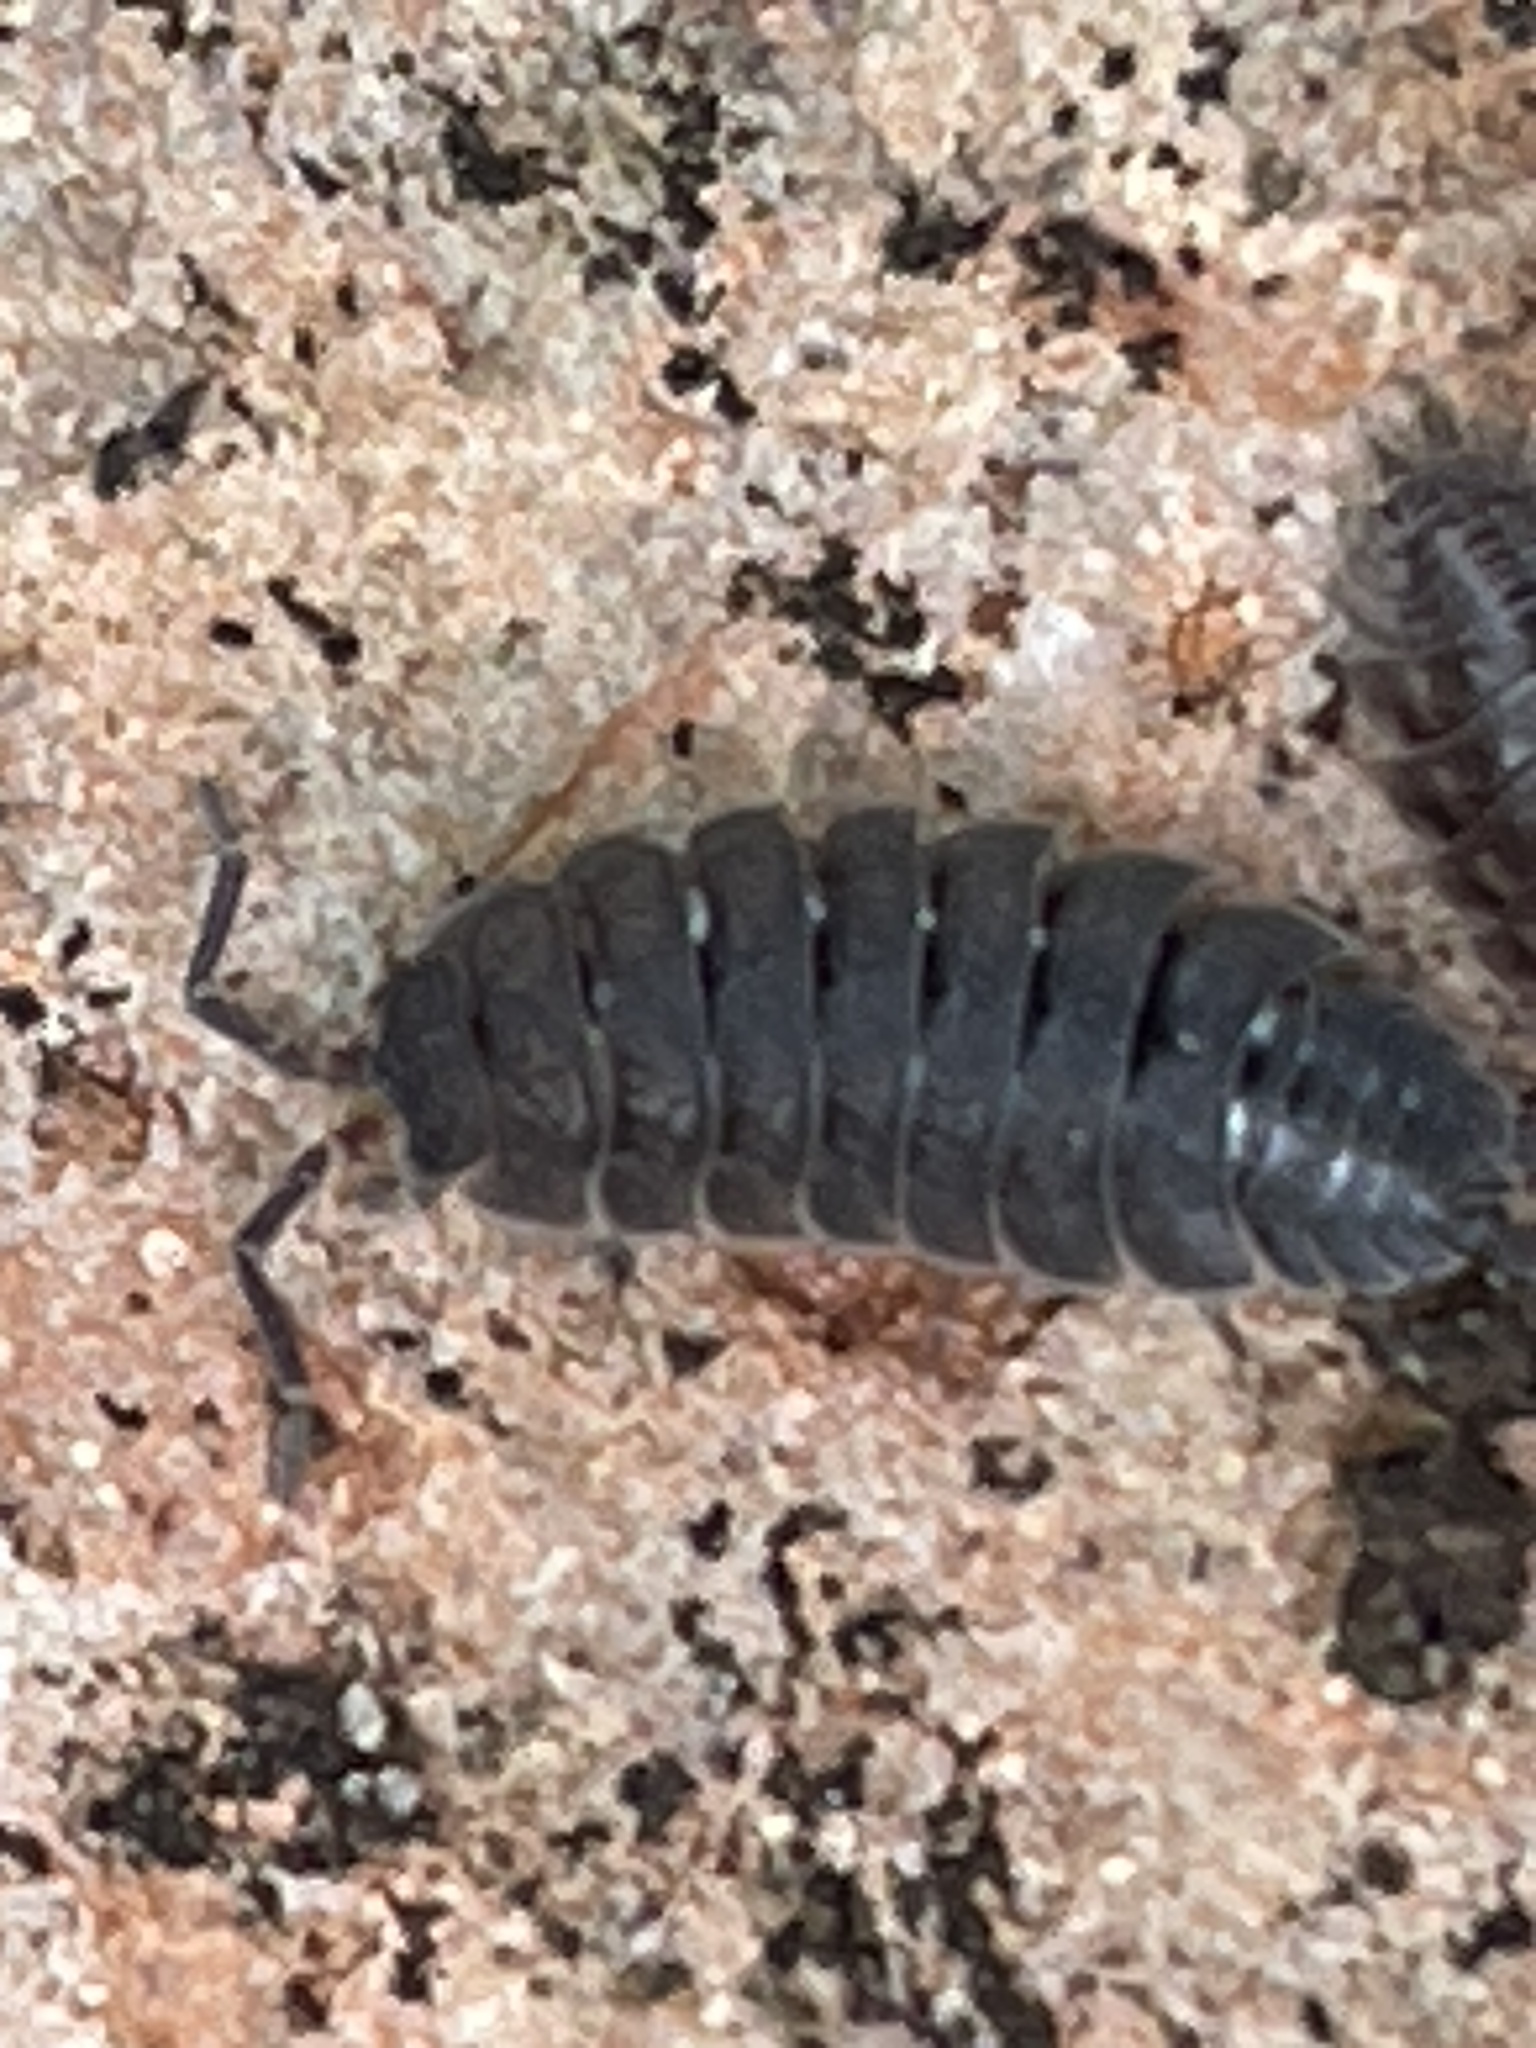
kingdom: Animalia
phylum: Arthropoda
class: Malacostraca
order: Isopoda
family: Porcellionidae
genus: Porcellio
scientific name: Porcellio scaber
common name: Common rough woodlouse
